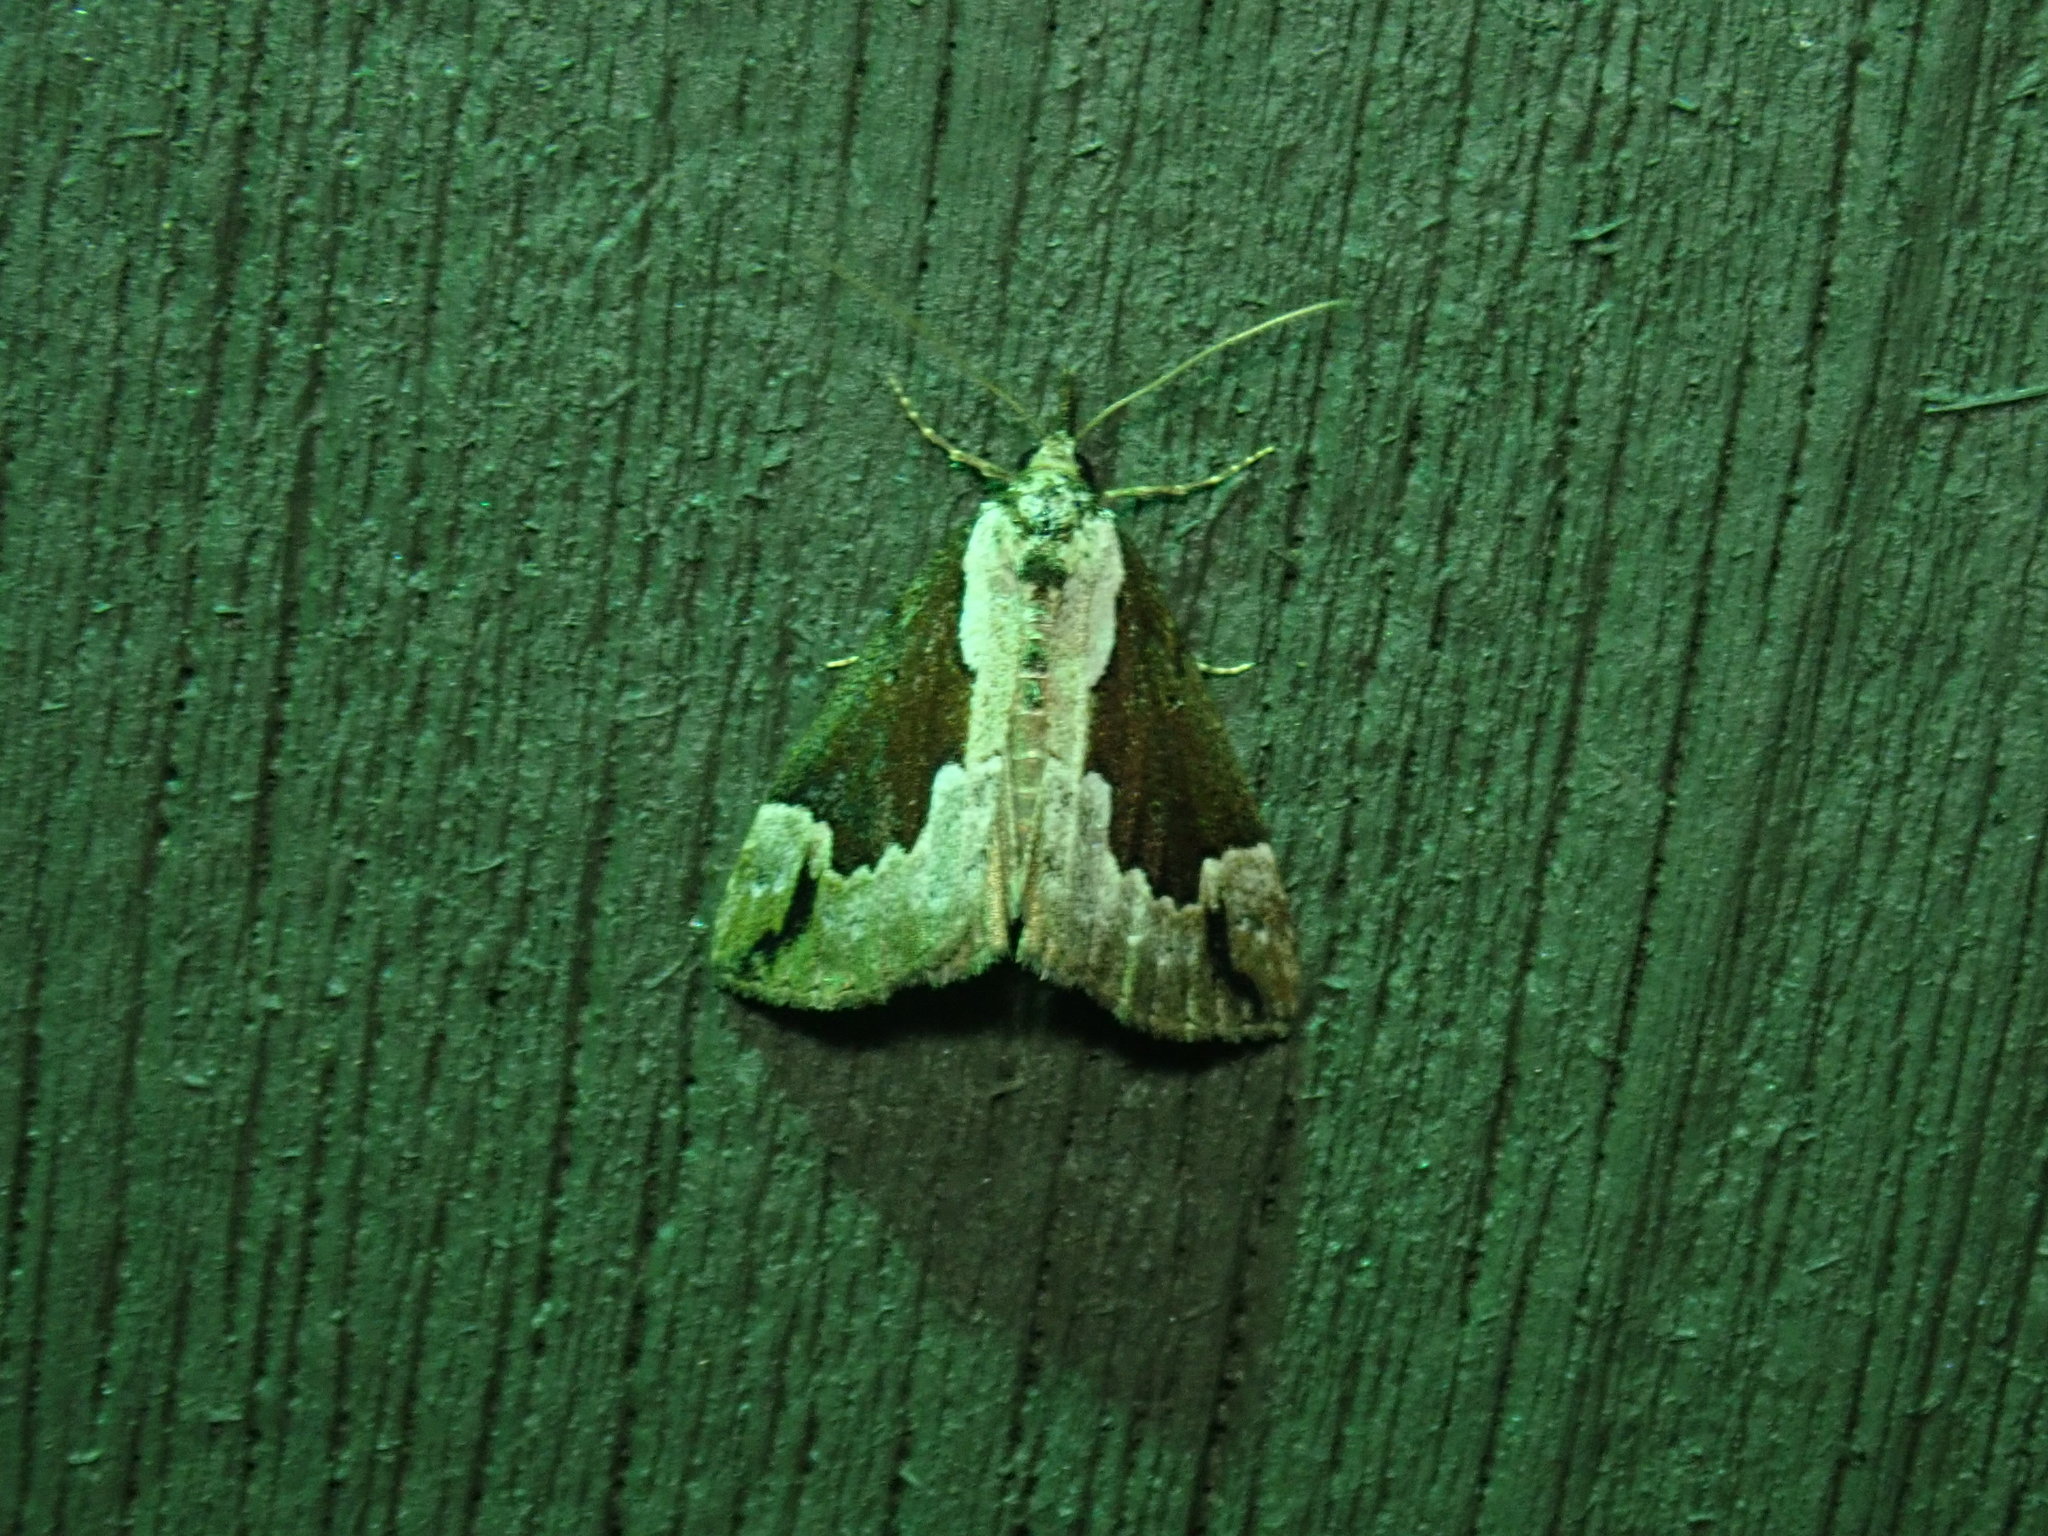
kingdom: Animalia
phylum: Arthropoda
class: Insecta
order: Lepidoptera
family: Erebidae
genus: Hypena
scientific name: Hypena baltimoralis
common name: Baltimore snout
